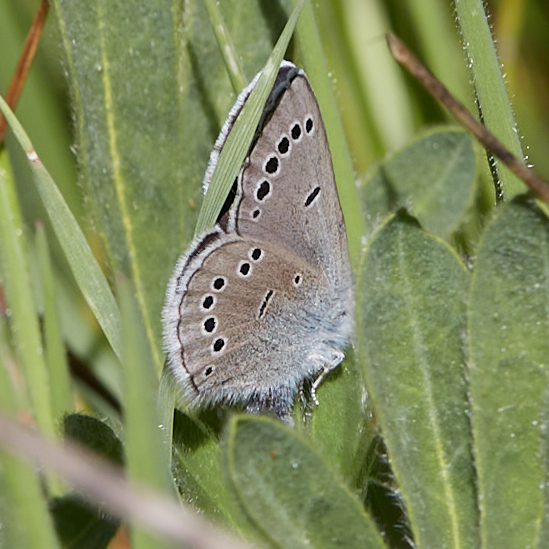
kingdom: Animalia
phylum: Arthropoda
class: Insecta
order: Lepidoptera
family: Lycaenidae
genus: Glaucopsyche
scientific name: Glaucopsyche lygdamus
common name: Silvery blue
